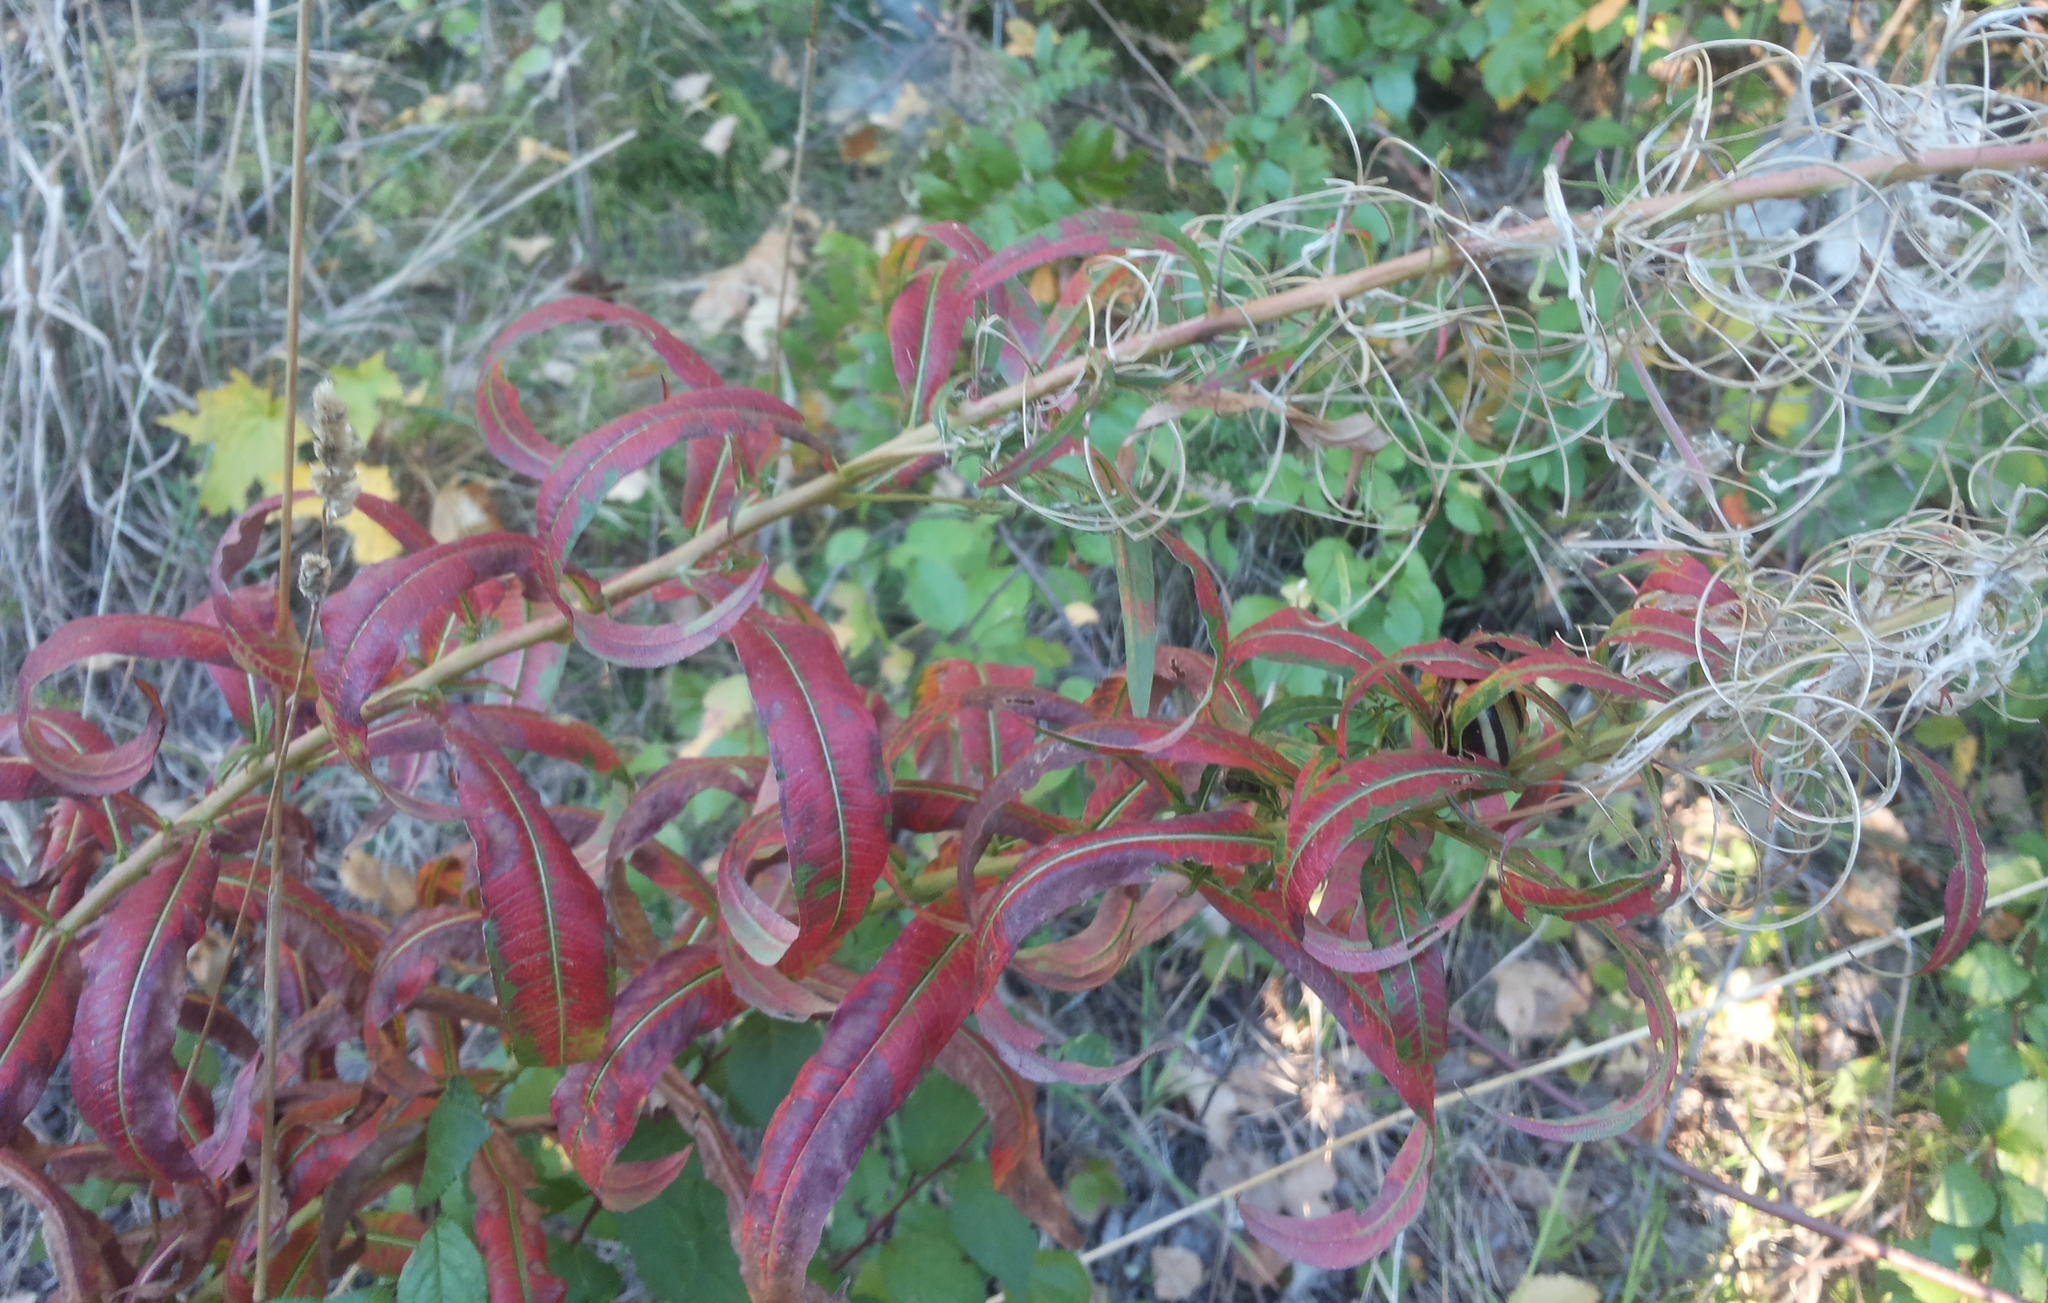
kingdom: Plantae
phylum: Tracheophyta
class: Magnoliopsida
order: Myrtales
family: Onagraceae
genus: Chamaenerion
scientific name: Chamaenerion angustifolium
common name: Fireweed
